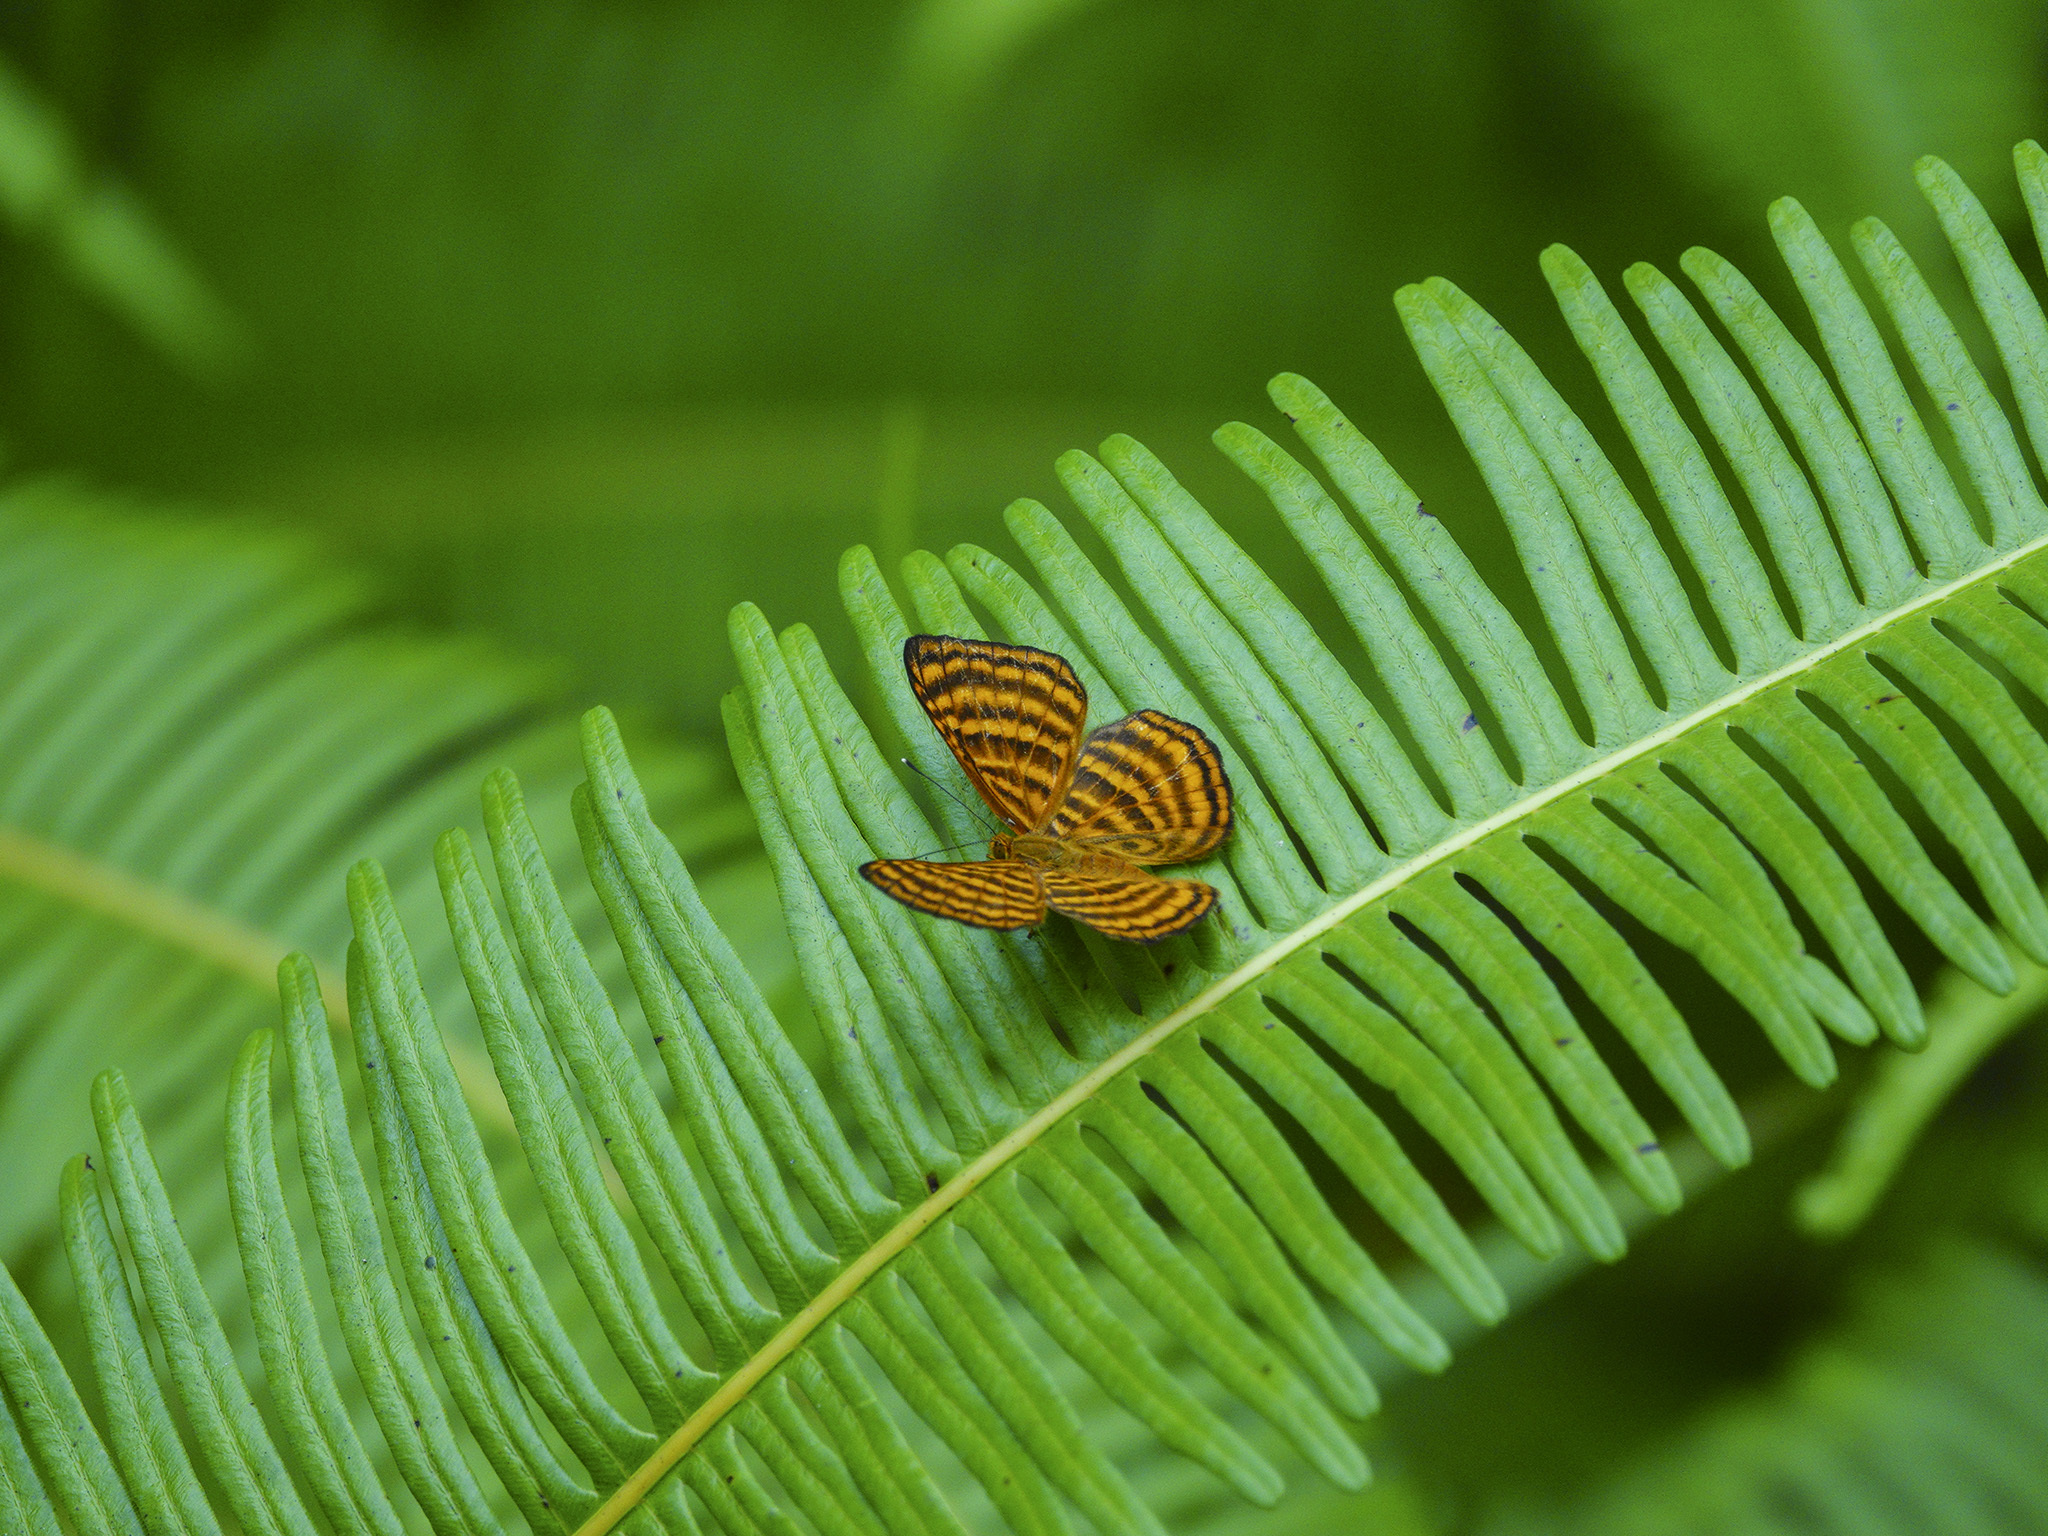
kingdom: Animalia
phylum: Arthropoda
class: Insecta
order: Lepidoptera
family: Riodinidae
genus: Zemeros
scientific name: Zemeros emesoides
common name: Malay punchinello
